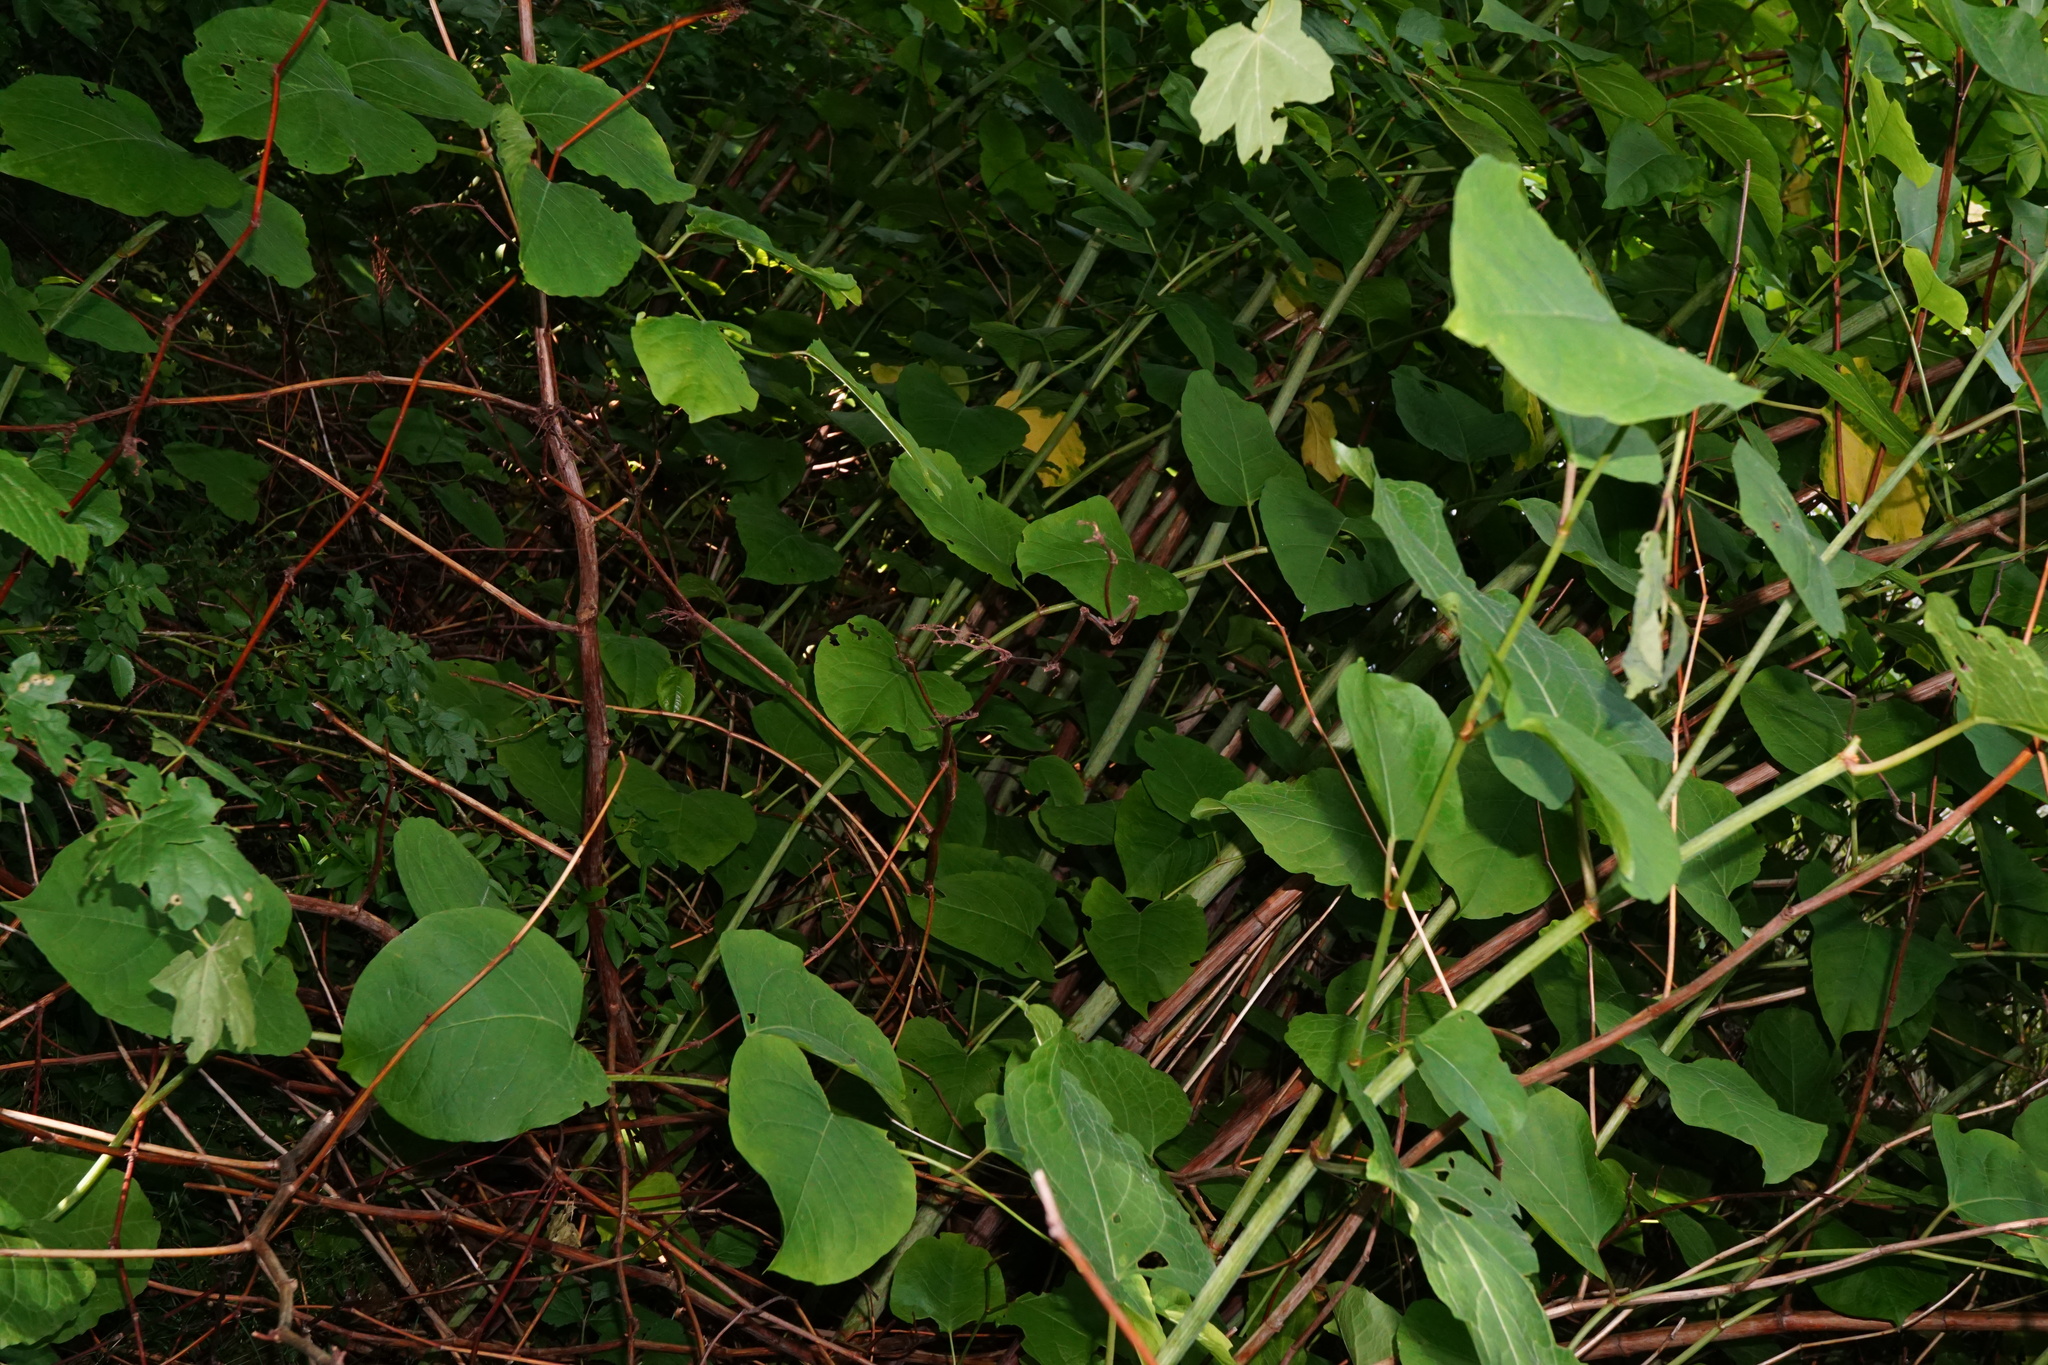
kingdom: Plantae
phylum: Tracheophyta
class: Magnoliopsida
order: Caryophyllales
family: Polygonaceae
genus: Reynoutria
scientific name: Reynoutria bohemica
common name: Bohemian knotweed
